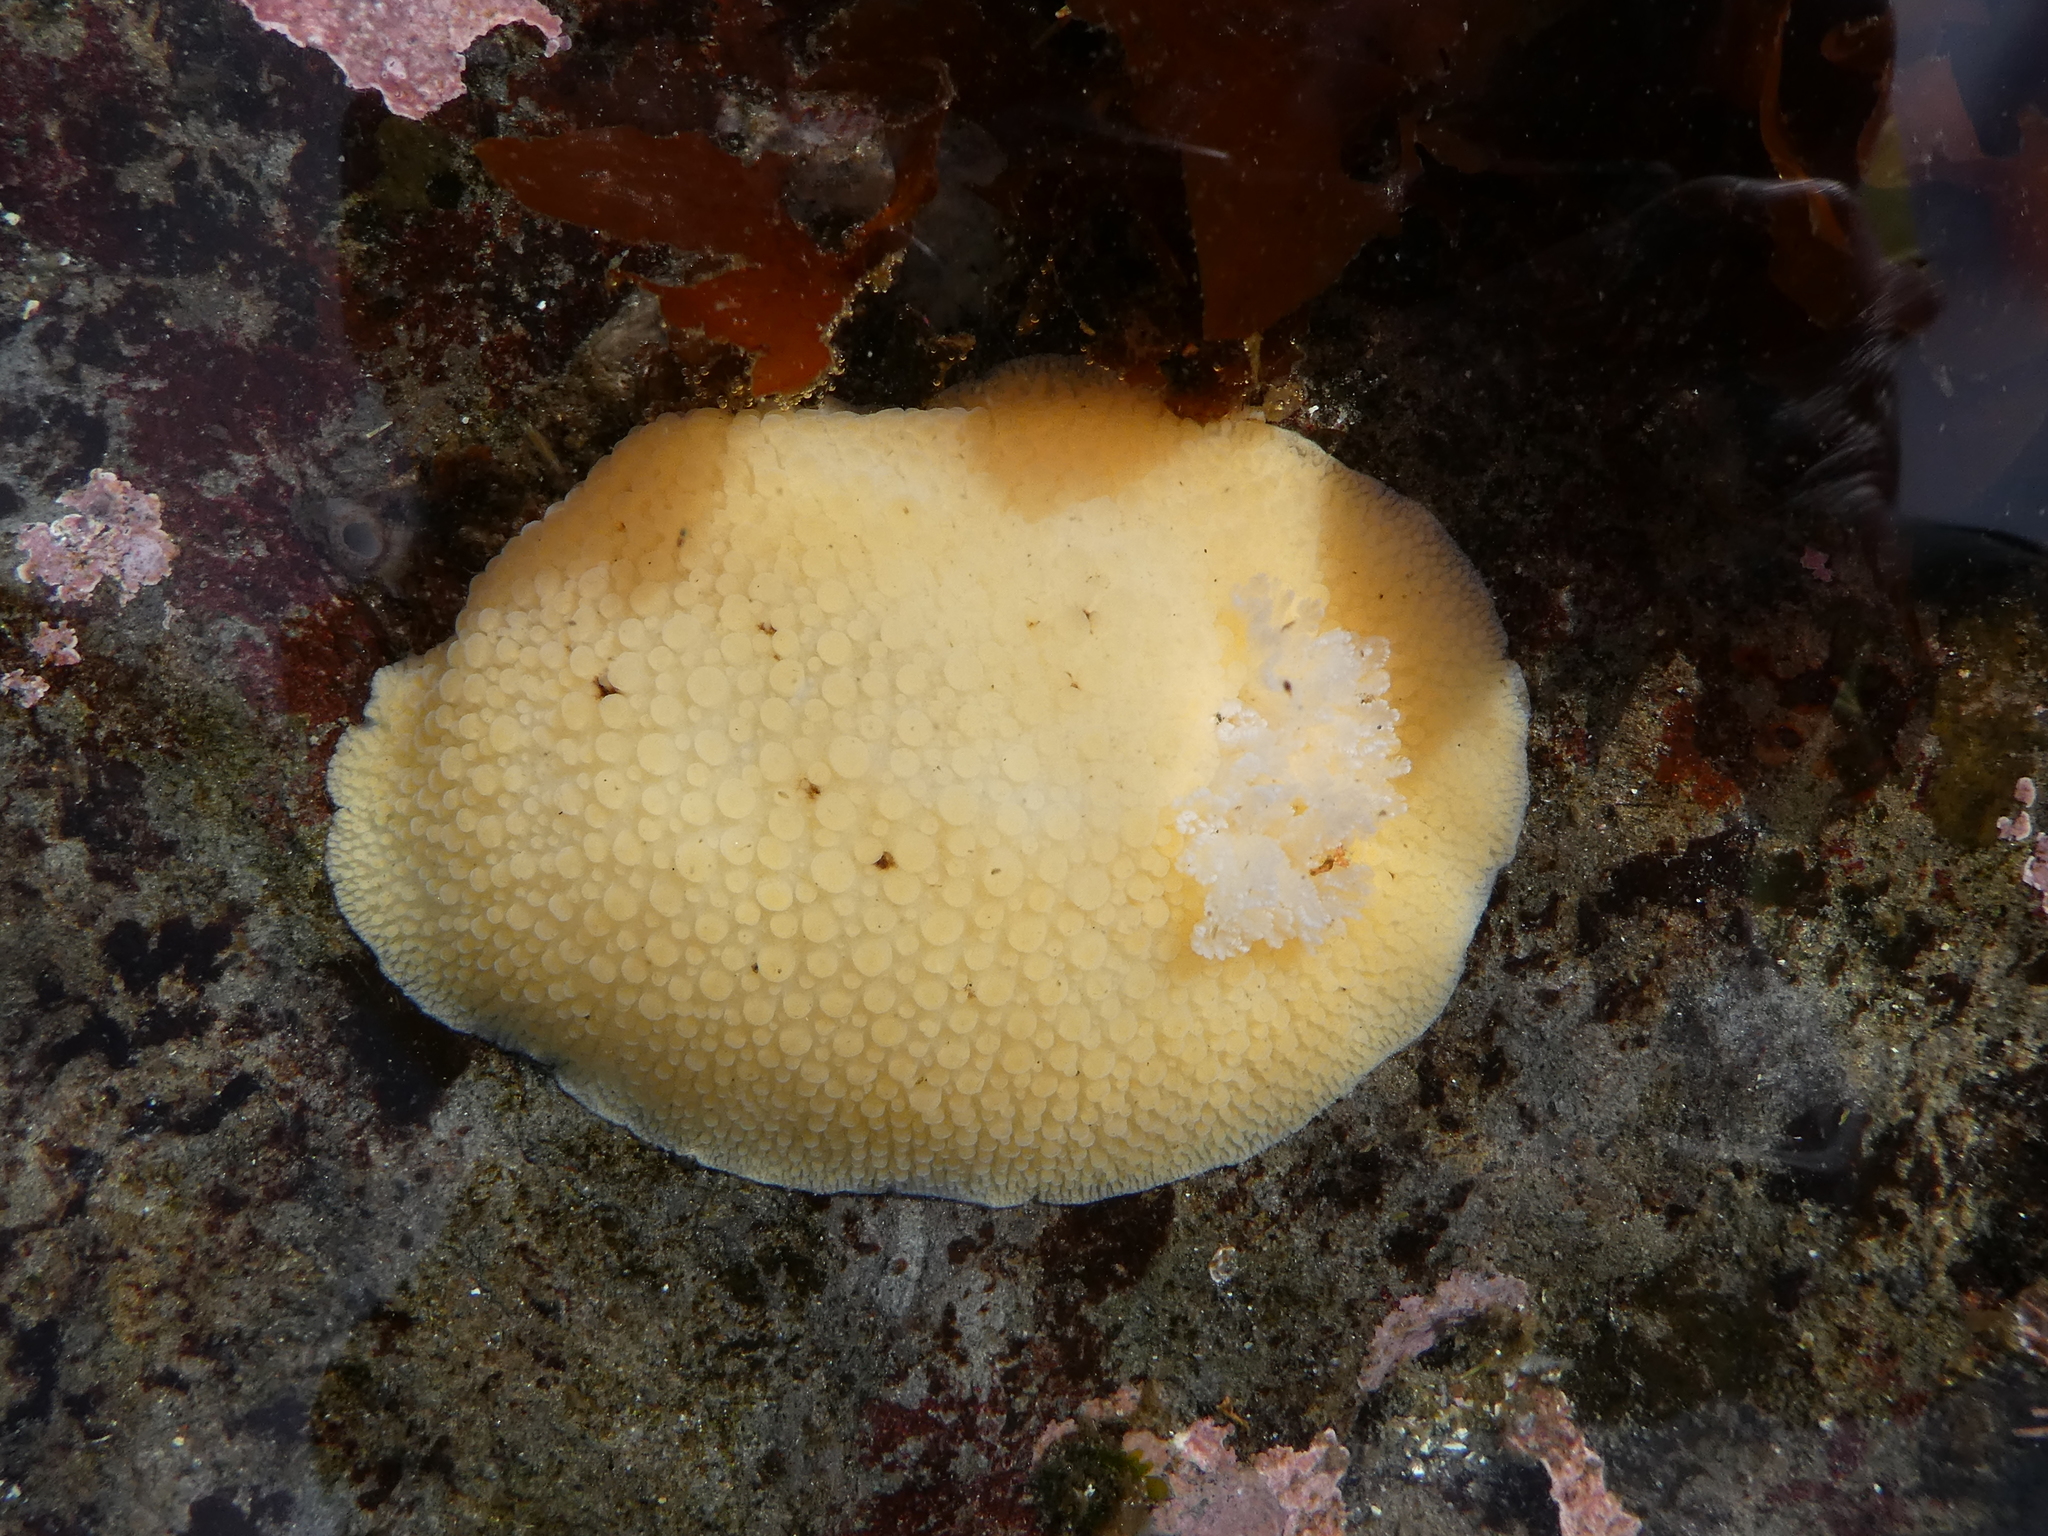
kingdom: Animalia
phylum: Mollusca
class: Gastropoda
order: Nudibranchia
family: Discodorididae
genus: Peltodoris
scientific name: Peltodoris nobilis
